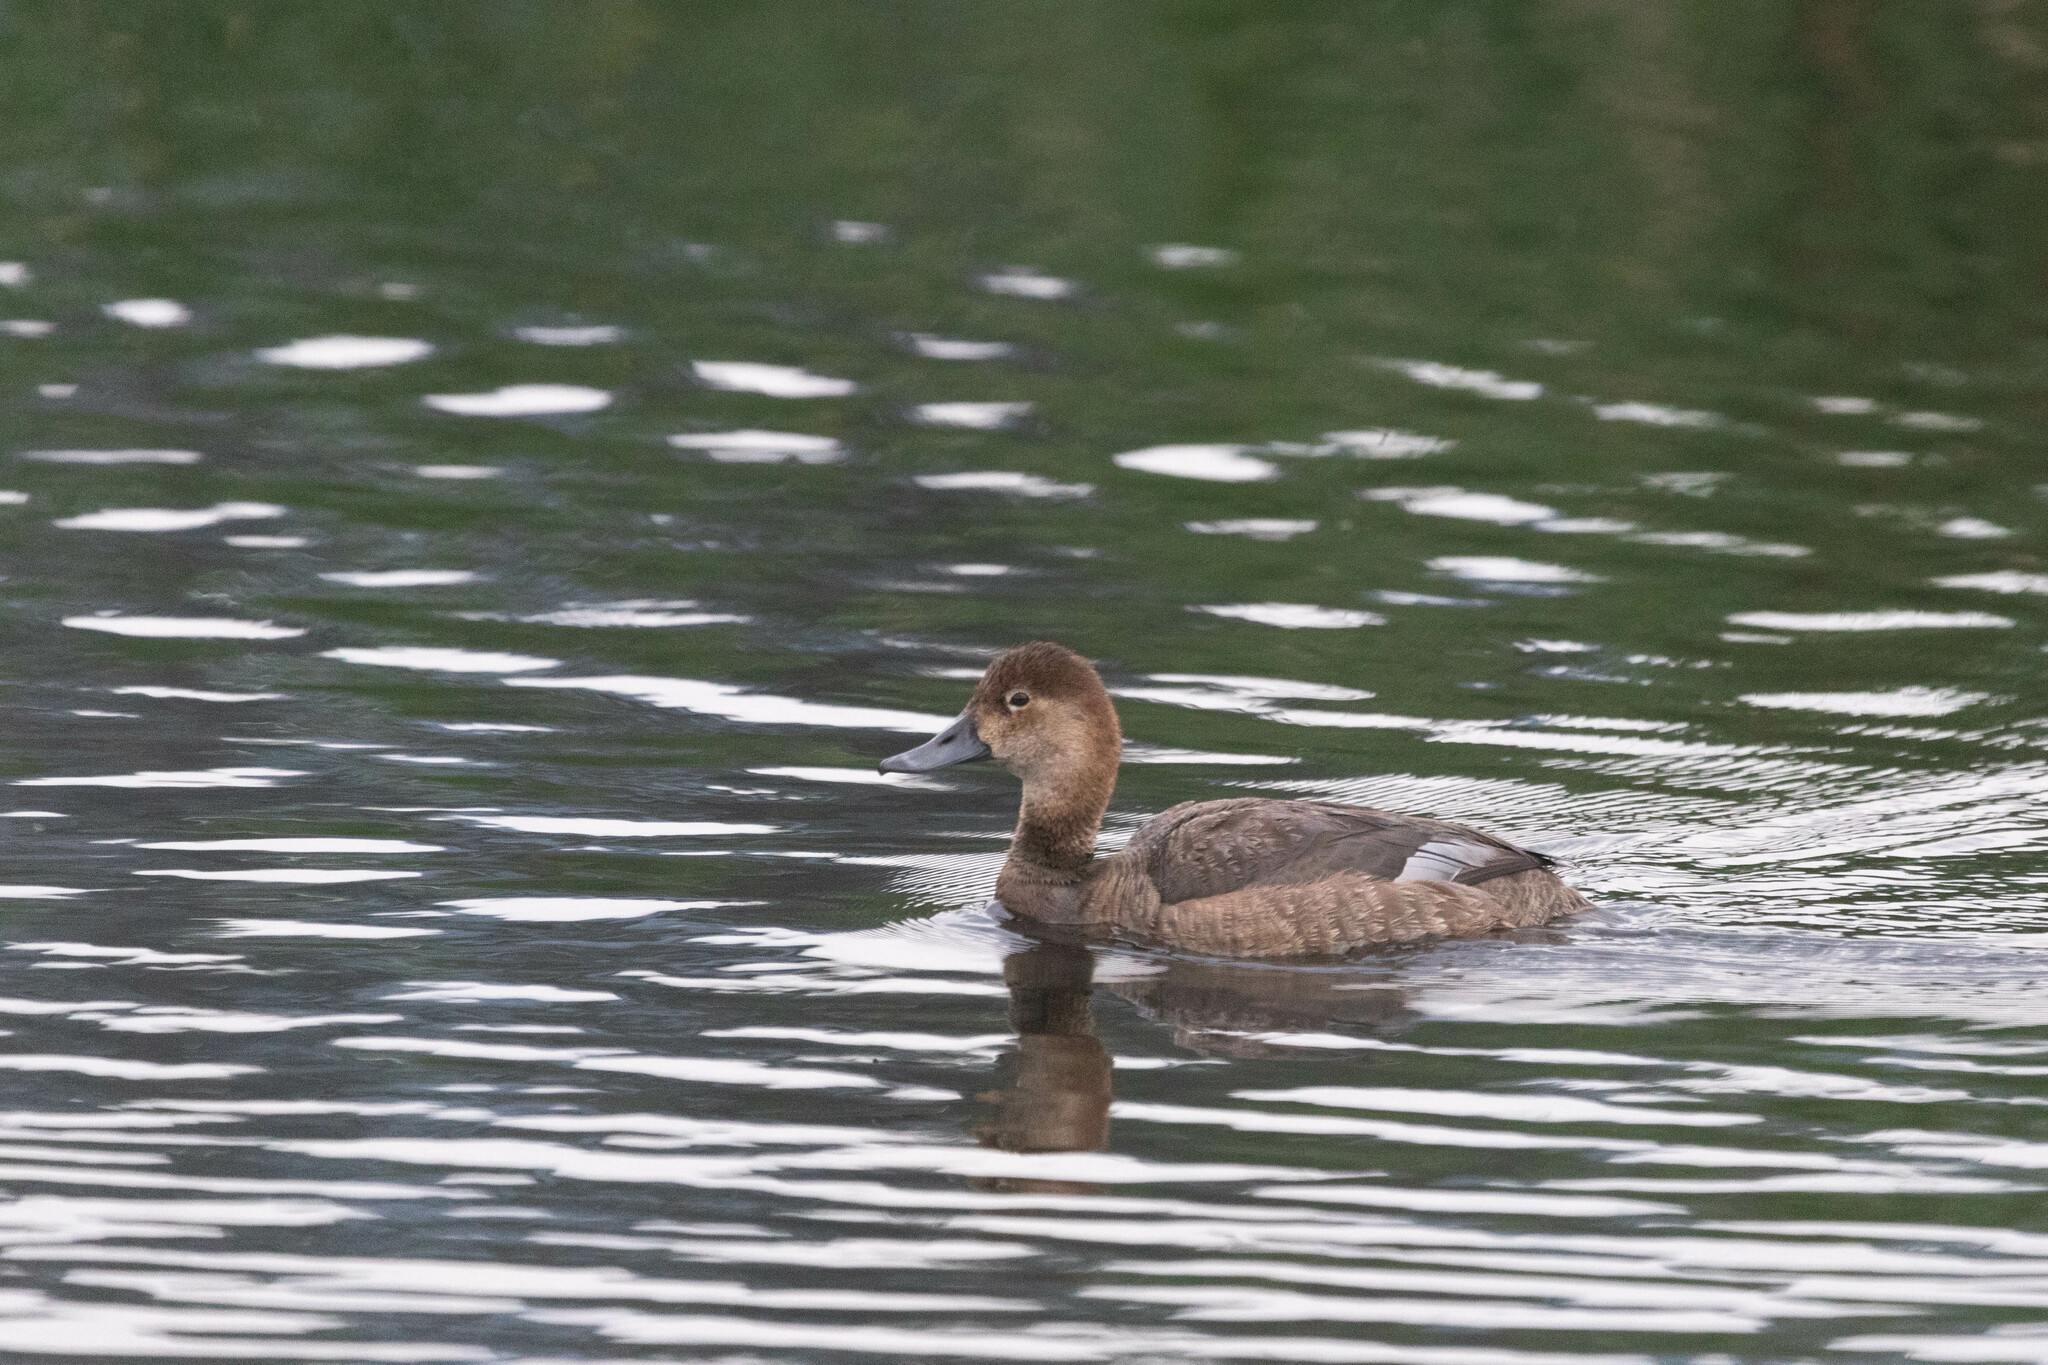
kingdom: Animalia
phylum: Chordata
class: Aves
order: Anseriformes
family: Anatidae
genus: Aythya
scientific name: Aythya americana
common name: Redhead
